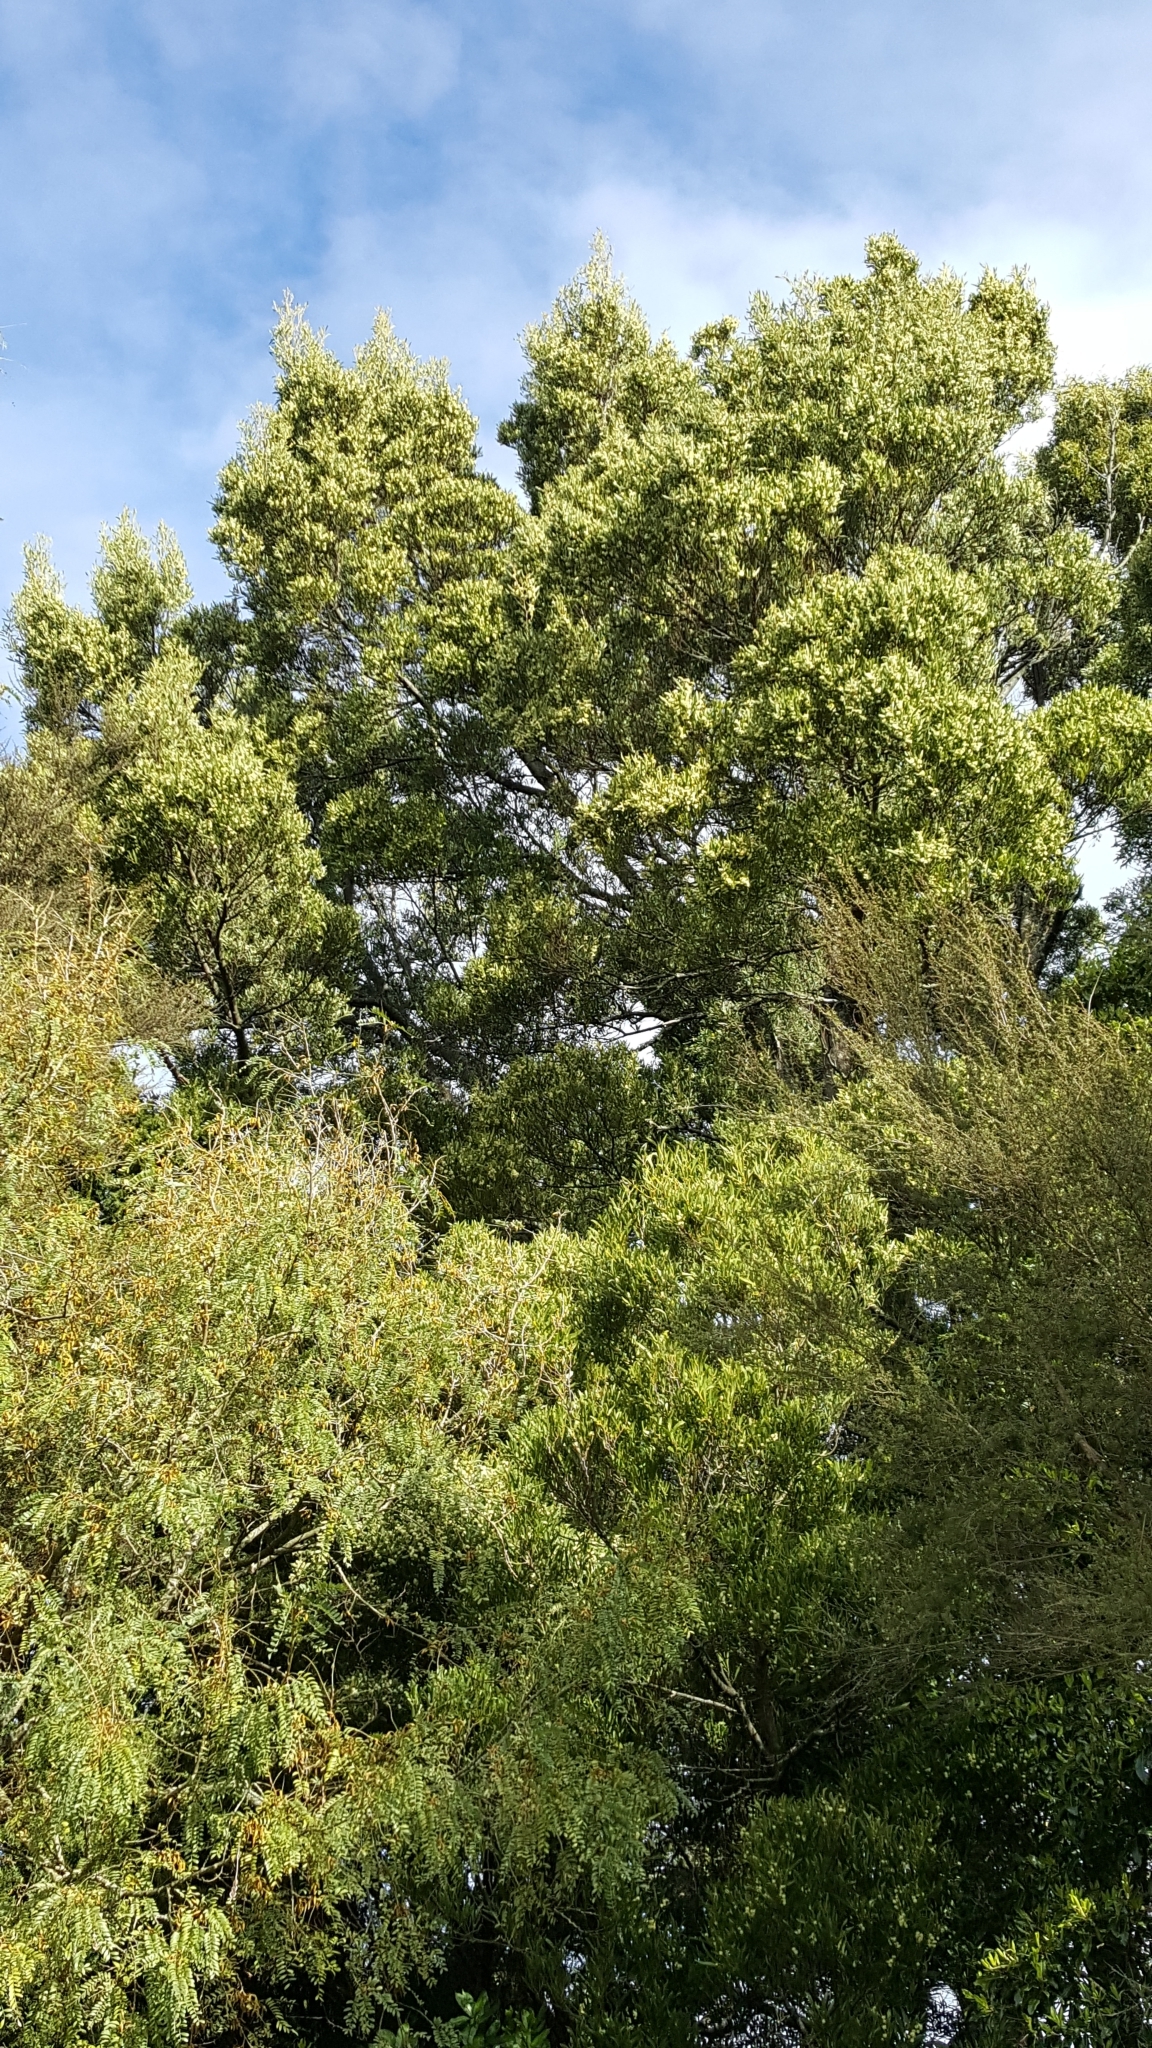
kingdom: Plantae
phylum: Tracheophyta
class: Magnoliopsida
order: Fabales
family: Fabaceae
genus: Acacia
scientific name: Acacia melanoxylon
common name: Blackwood
